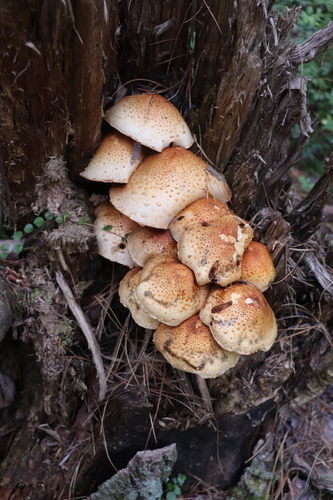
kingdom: Fungi
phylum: Basidiomycota
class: Agaricomycetes
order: Agaricales
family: Strophariaceae
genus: Pholiota
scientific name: Pholiota squarrosa
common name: Shaggy pholiota
